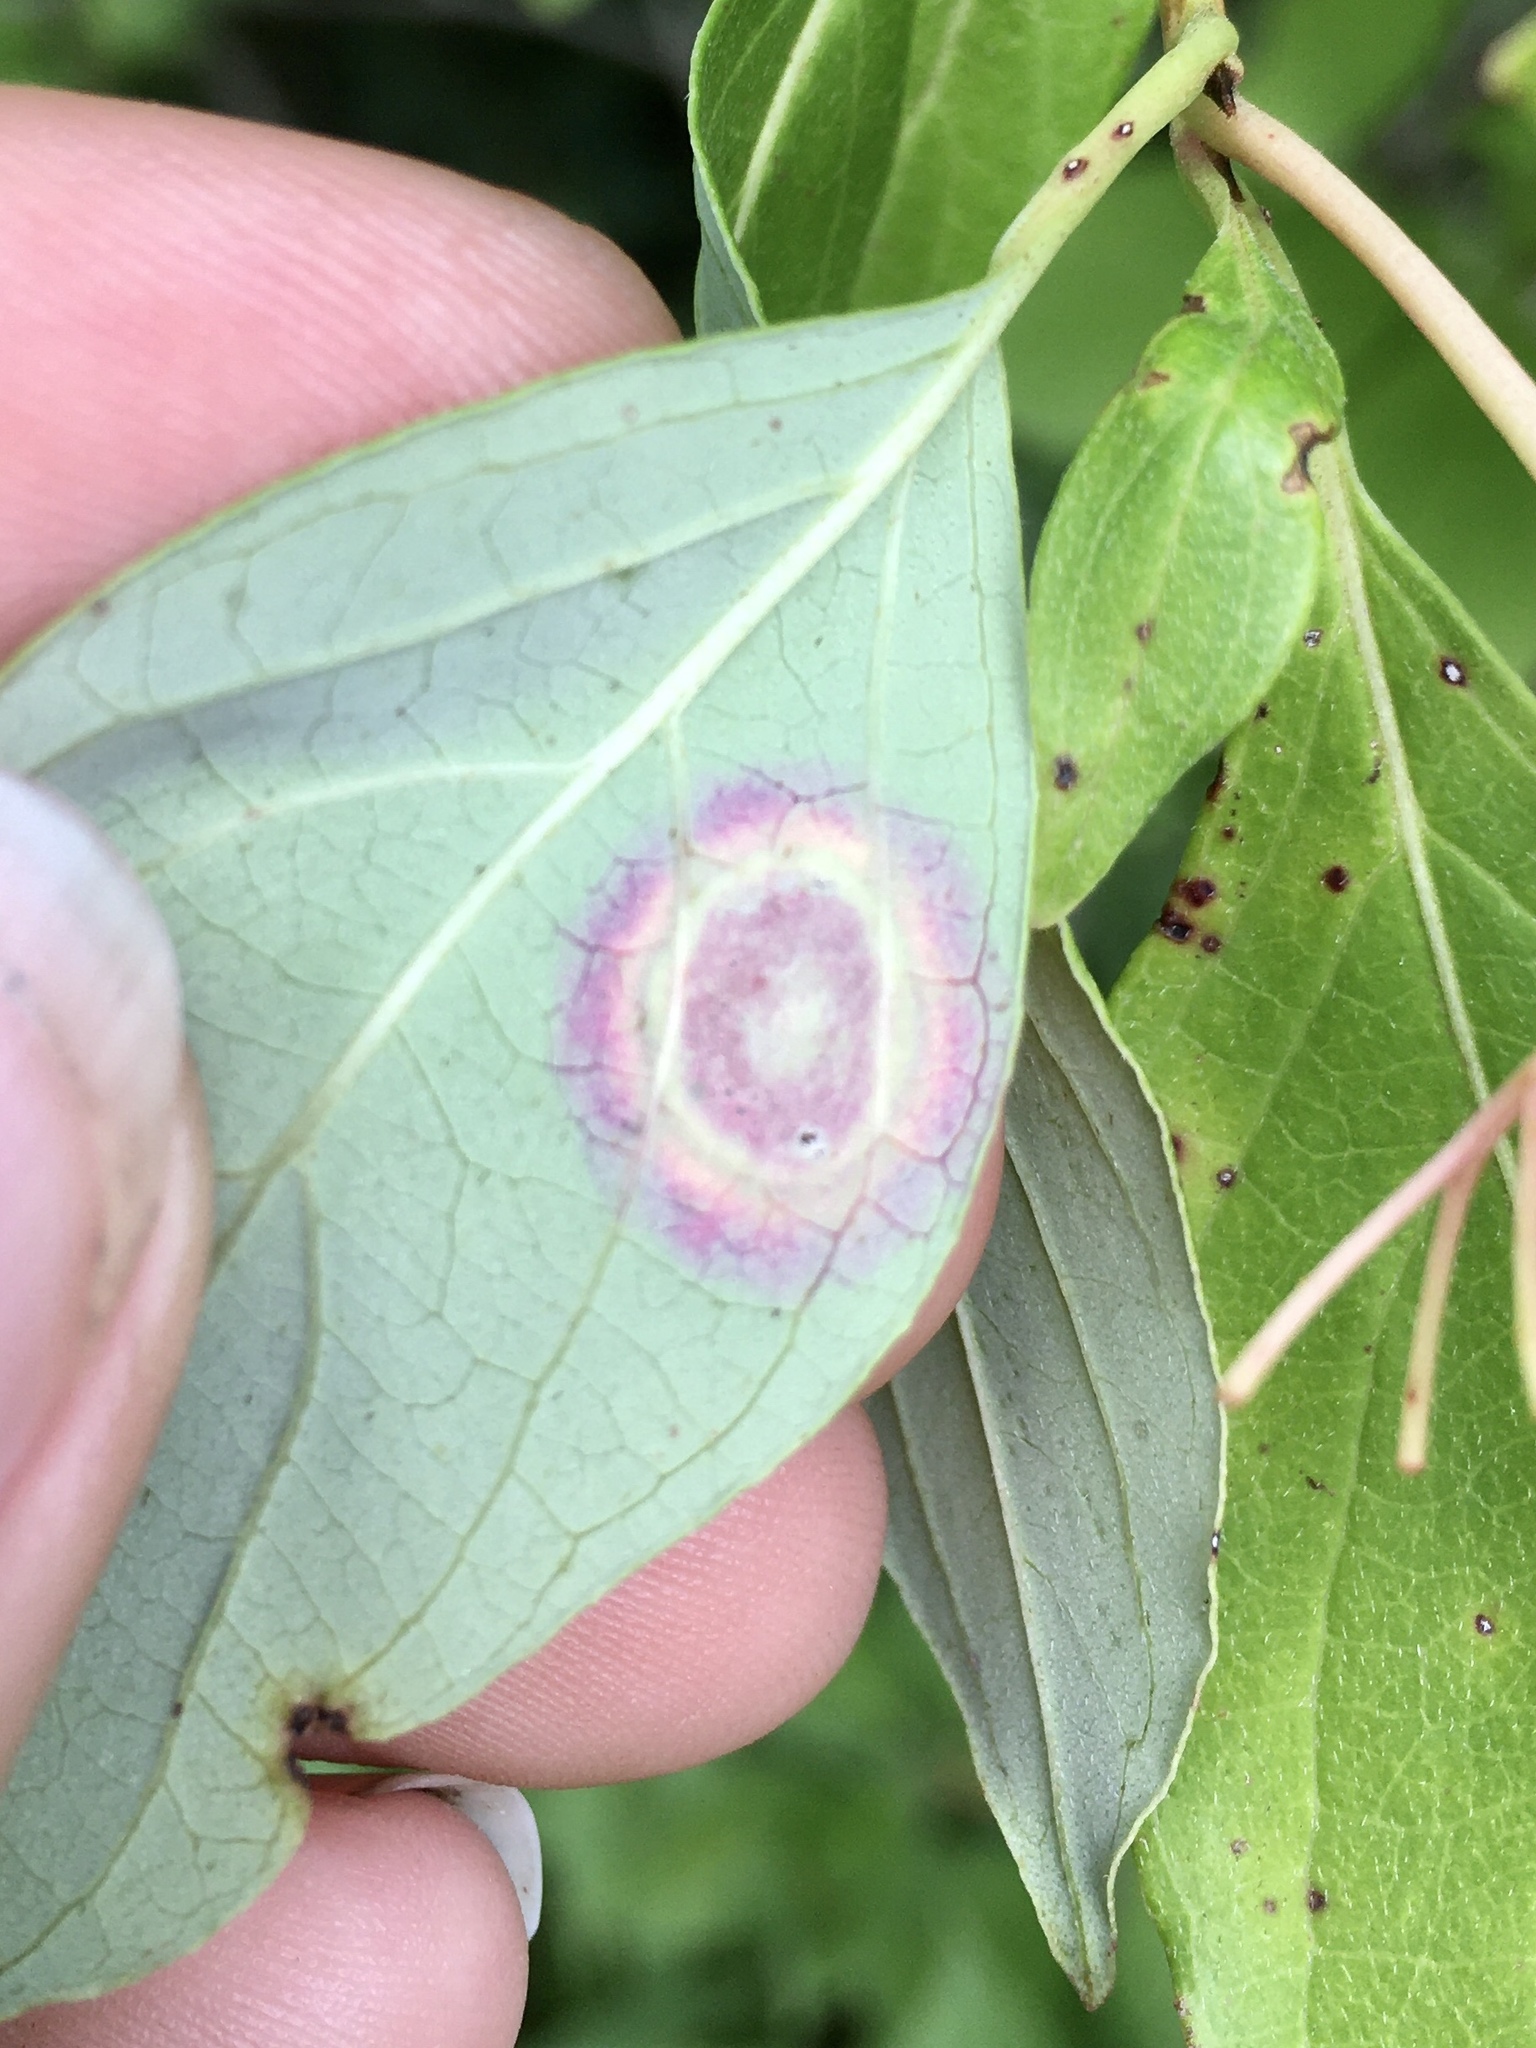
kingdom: Animalia
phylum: Arthropoda
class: Insecta
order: Diptera
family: Cecidomyiidae
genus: Parallelodiplosis
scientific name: Parallelodiplosis subtruncata
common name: Dogwood eyespot gall midge
